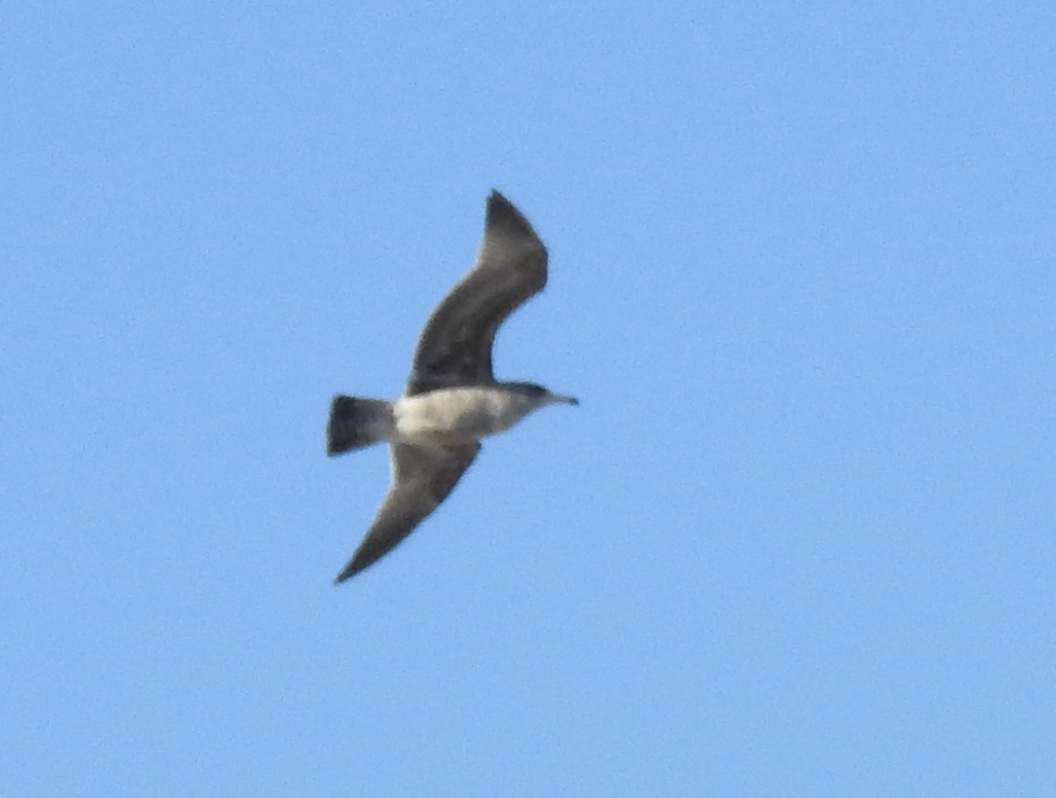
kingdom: Animalia
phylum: Chordata
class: Aves
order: Charadriiformes
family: Laridae
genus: Larus
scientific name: Larus californicus
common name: California gull
